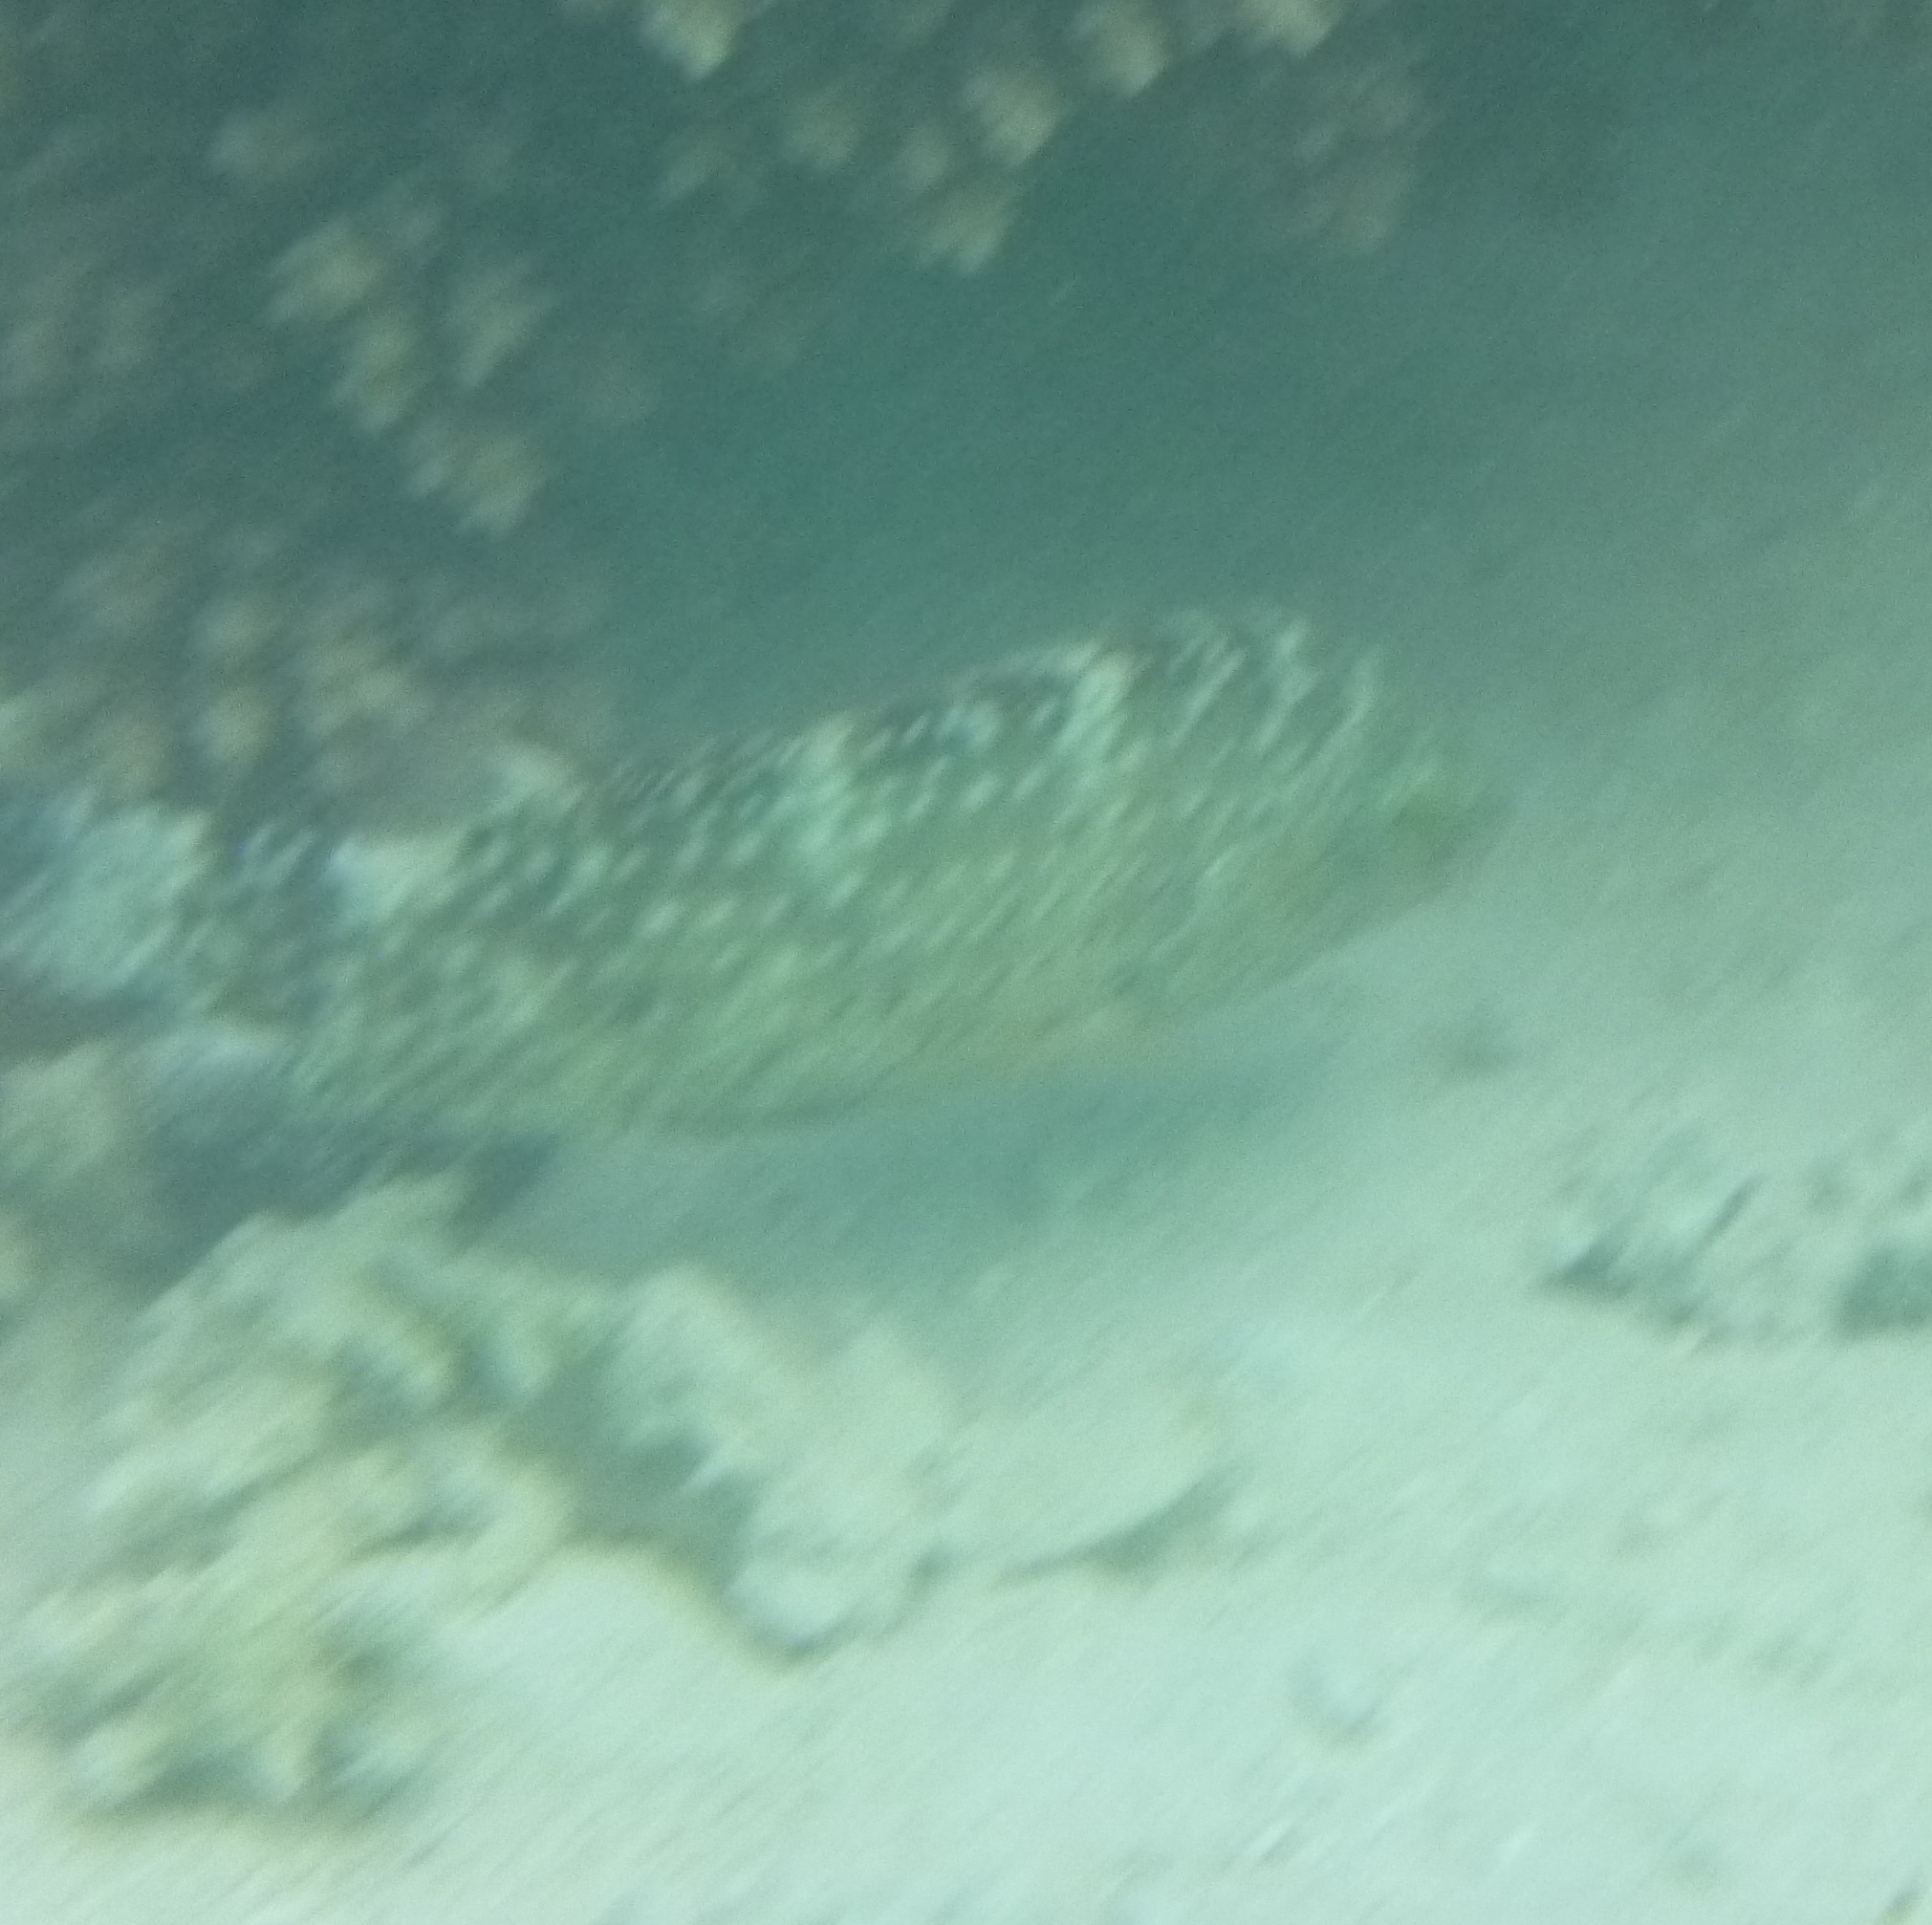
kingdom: Animalia
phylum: Chordata
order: Perciformes
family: Labridae
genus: Cheilinus
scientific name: Cheilinus chlorourus
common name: Floral wrasse
